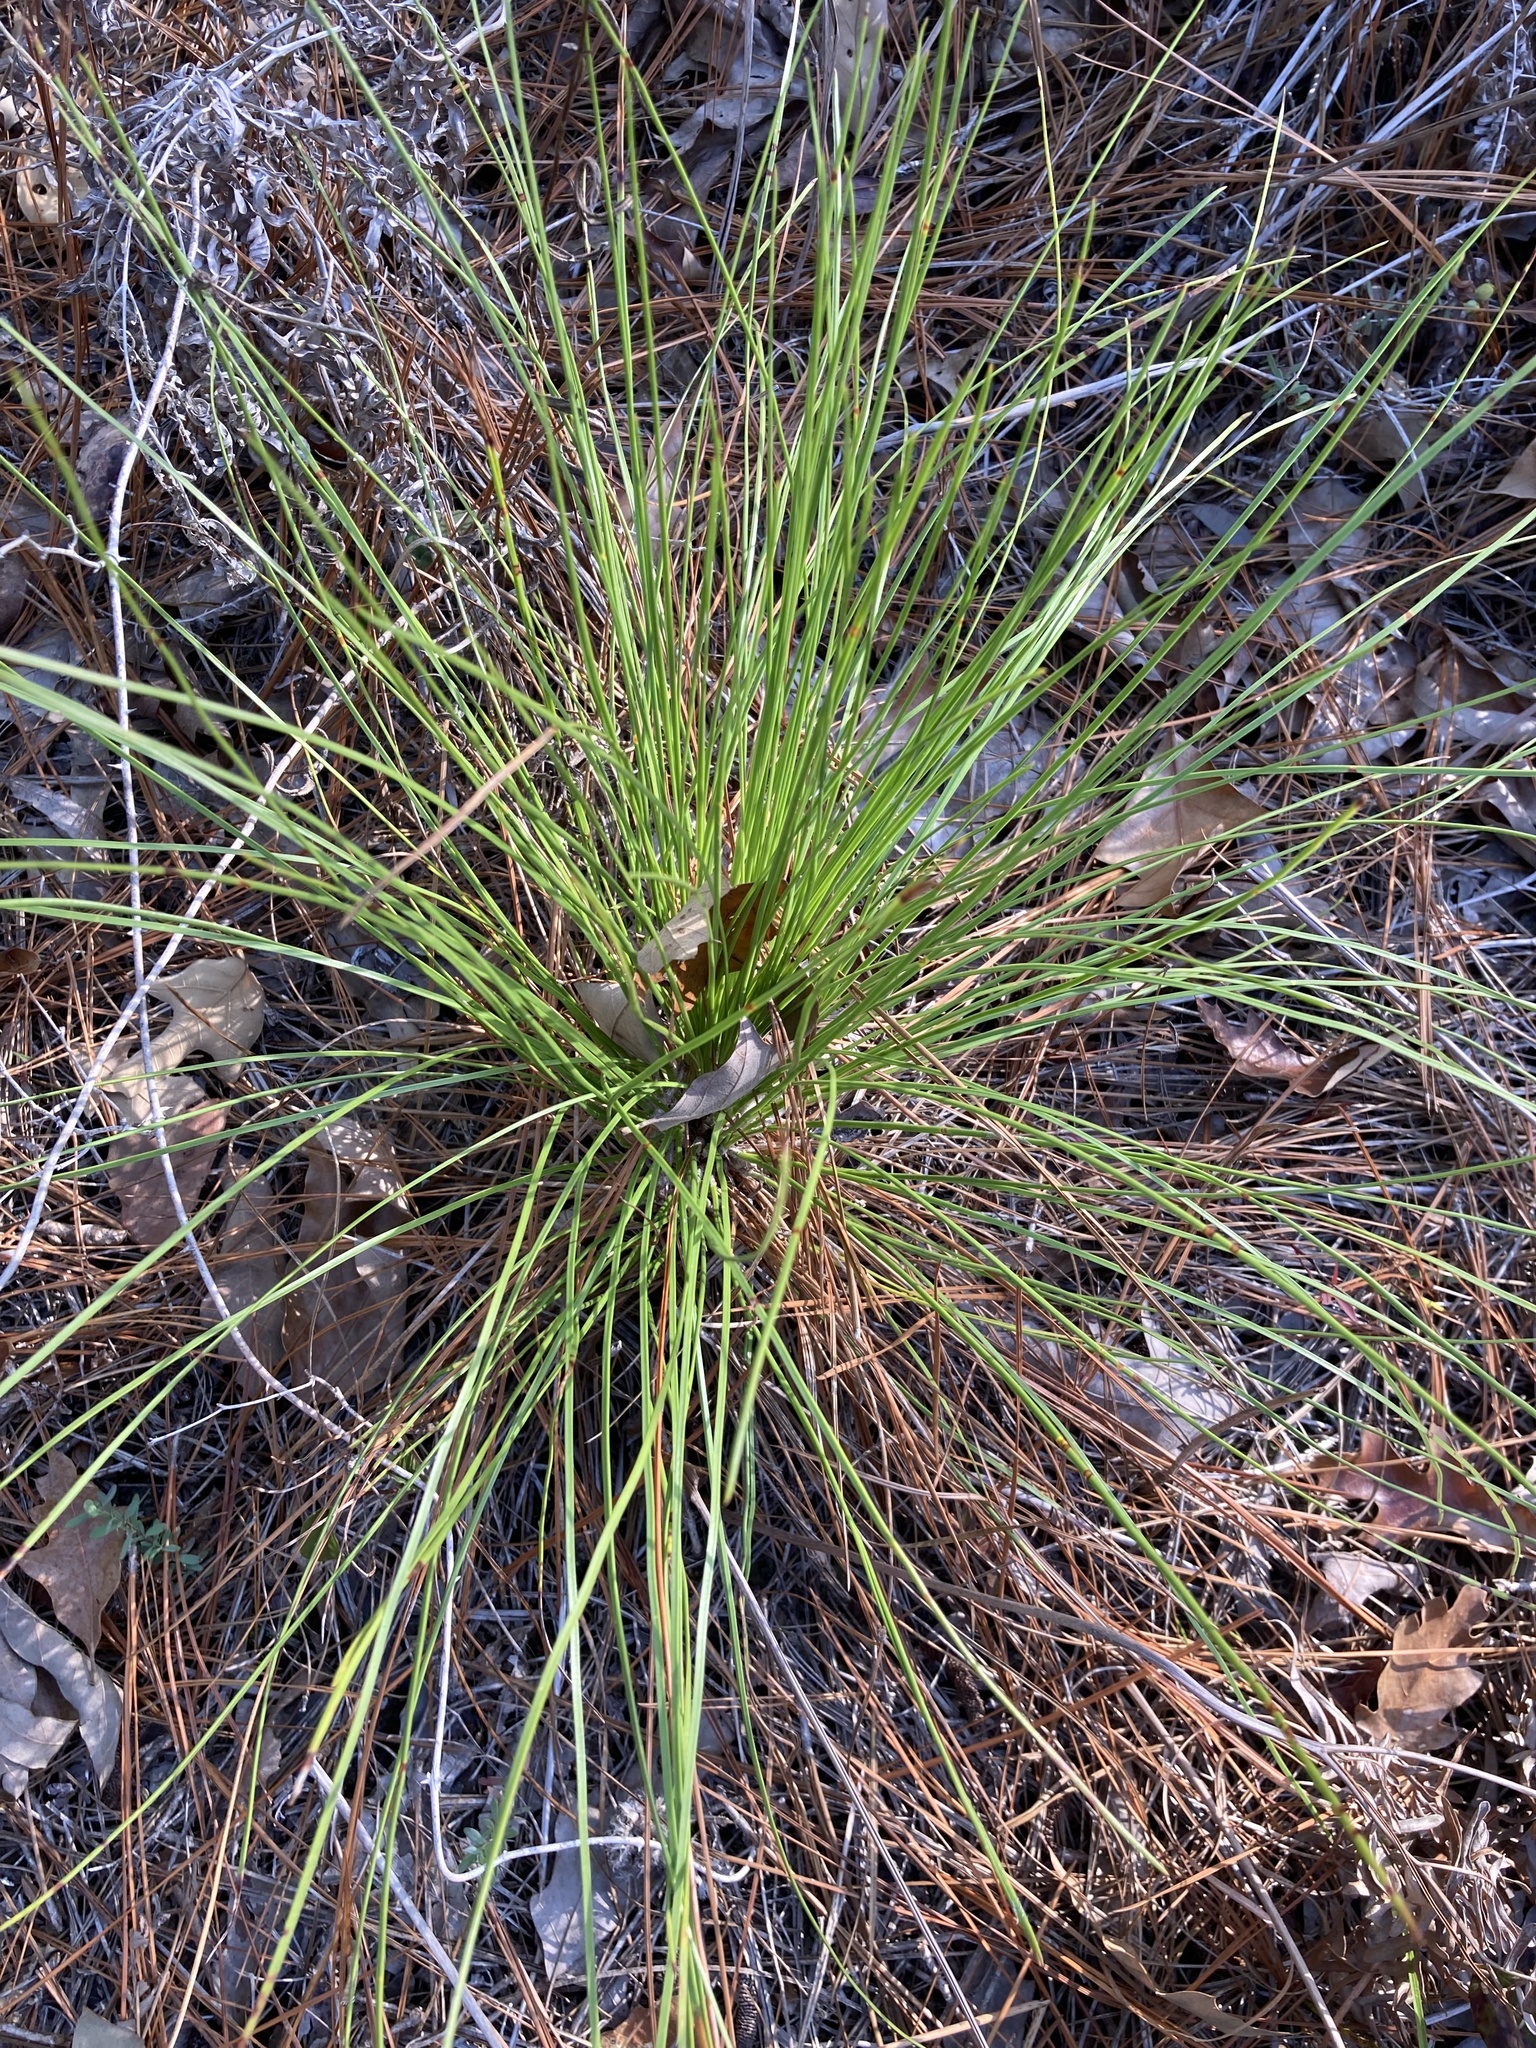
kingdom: Plantae
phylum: Tracheophyta
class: Pinopsida
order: Pinales
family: Pinaceae
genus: Pinus
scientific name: Pinus palustris
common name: Longleaf pine
